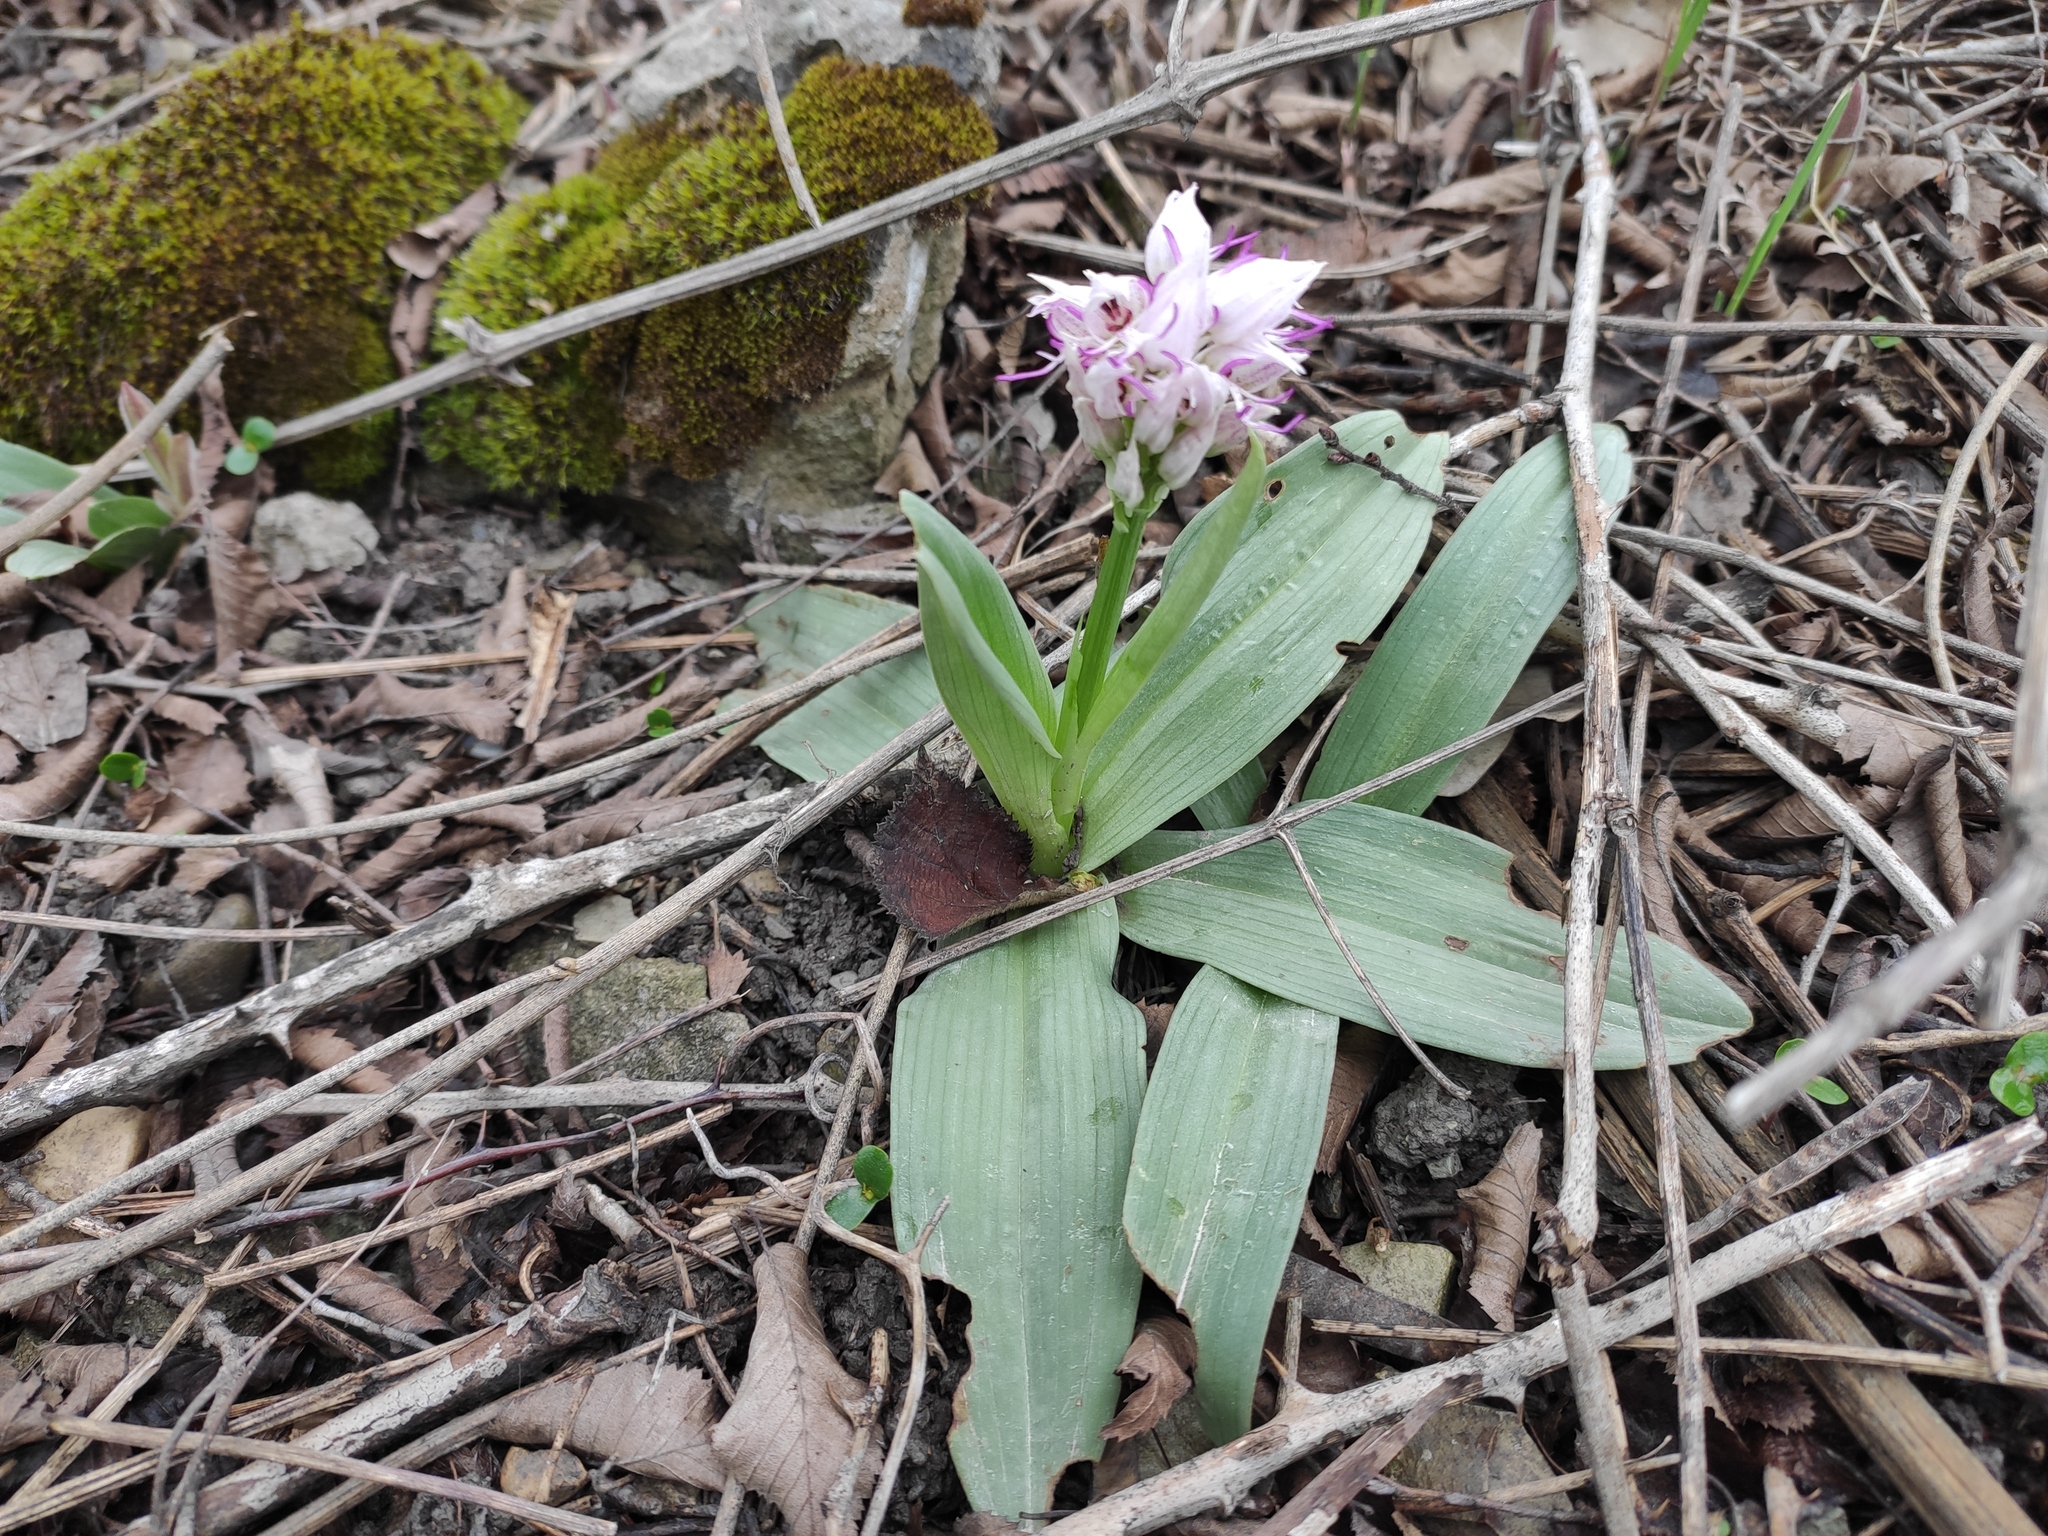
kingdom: Plantae
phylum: Tracheophyta
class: Liliopsida
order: Asparagales
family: Orchidaceae
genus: Orchis
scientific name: Orchis simia
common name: Monkey orchid
